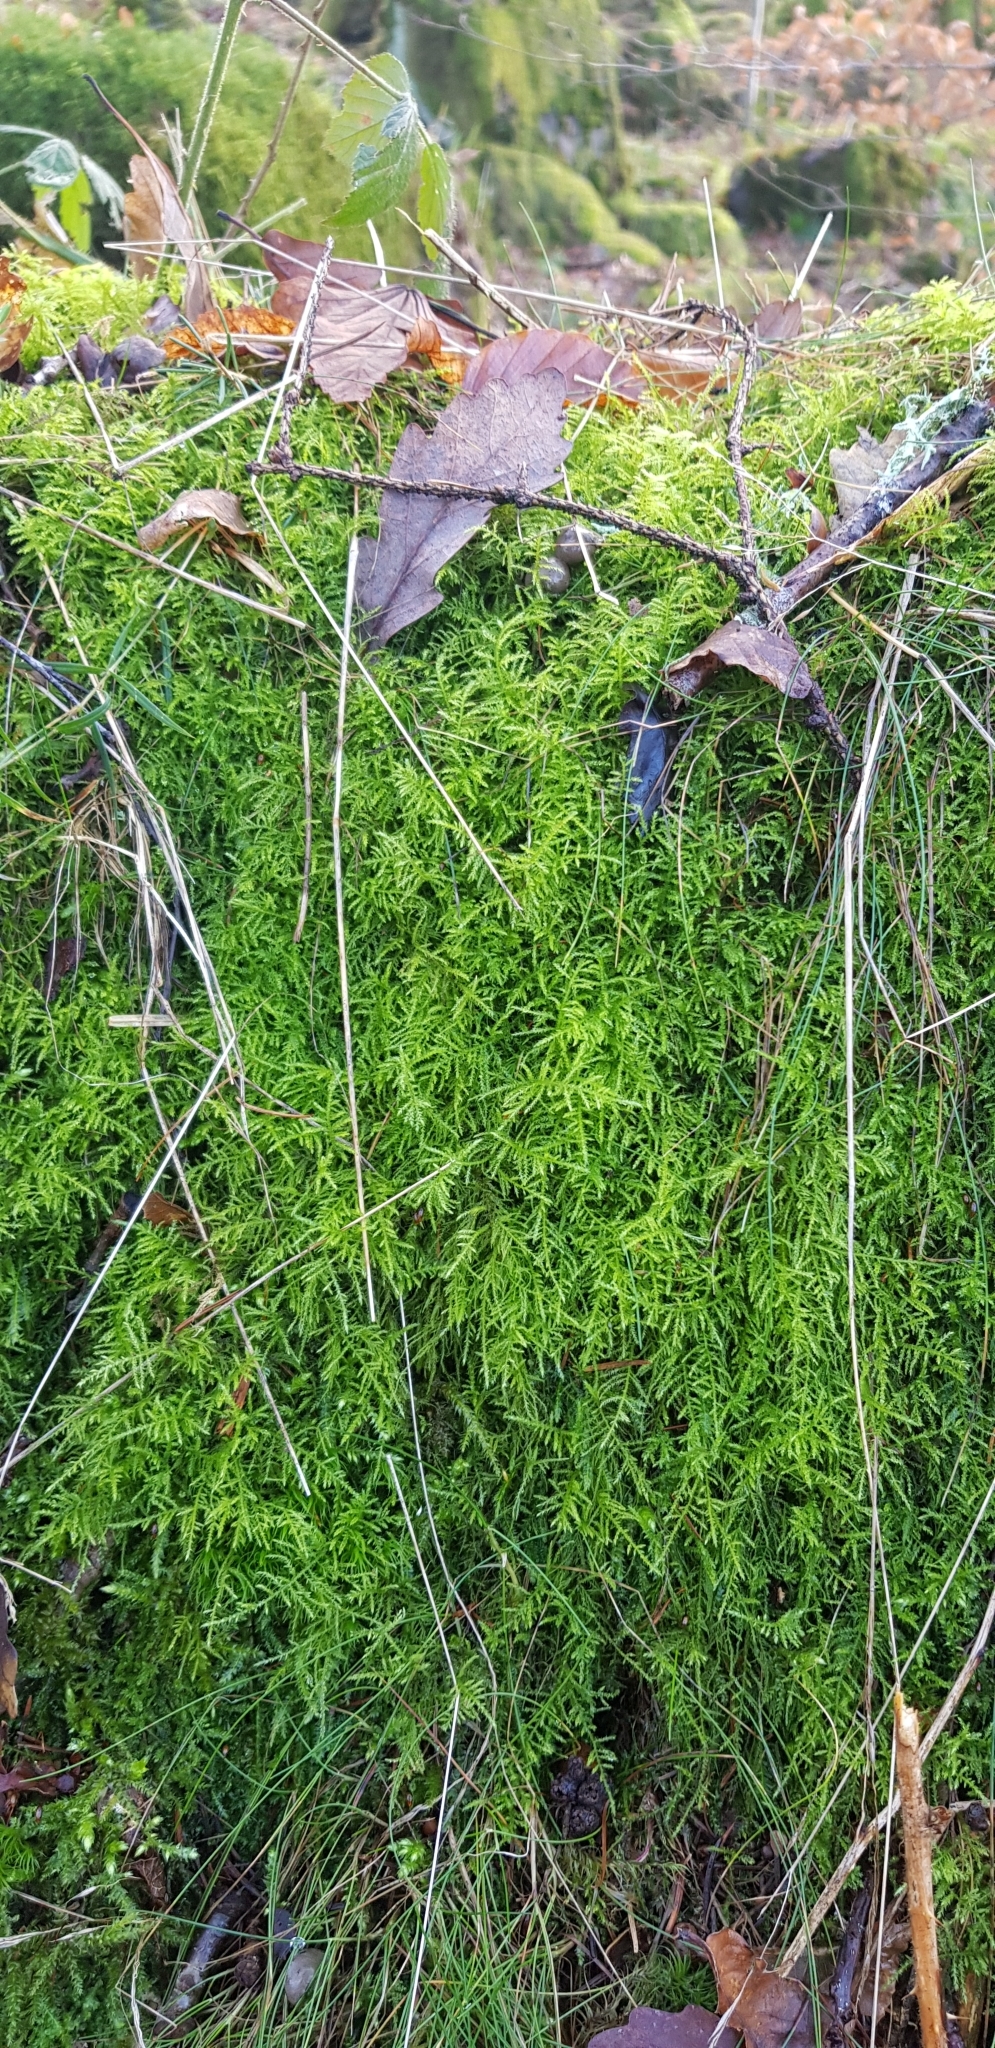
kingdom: Plantae
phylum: Bryophyta
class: Bryopsida
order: Hypnales
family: Brachytheciaceae
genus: Kindbergia
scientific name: Kindbergia praelonga
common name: Slender beaked moss
